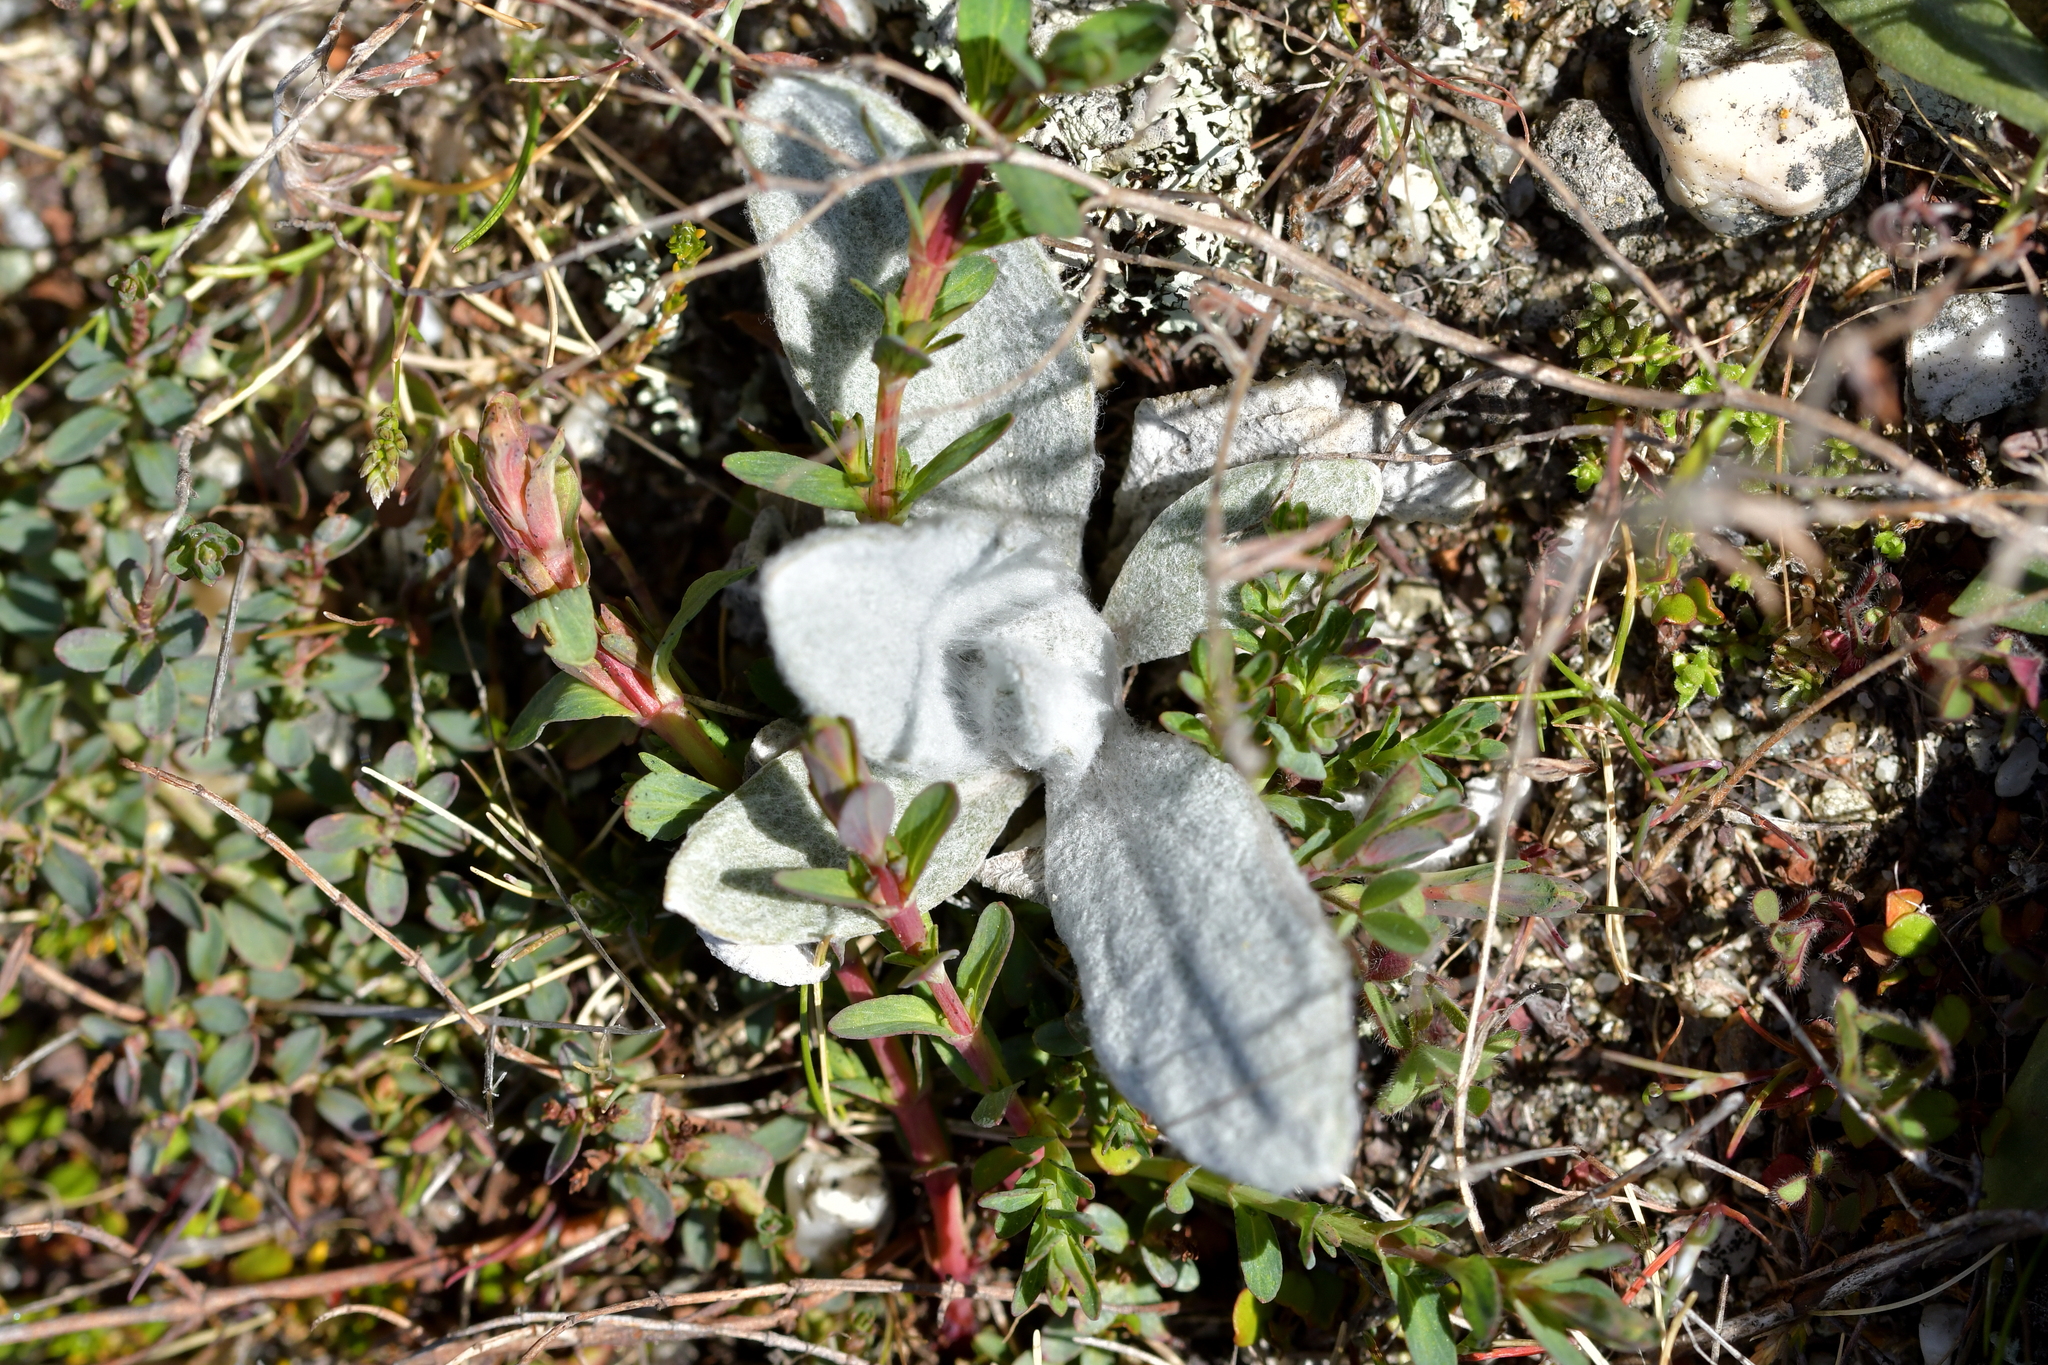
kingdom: Plantae
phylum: Tracheophyta
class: Magnoliopsida
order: Asterales
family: Asteraceae
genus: Craspedia
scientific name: Craspedia
